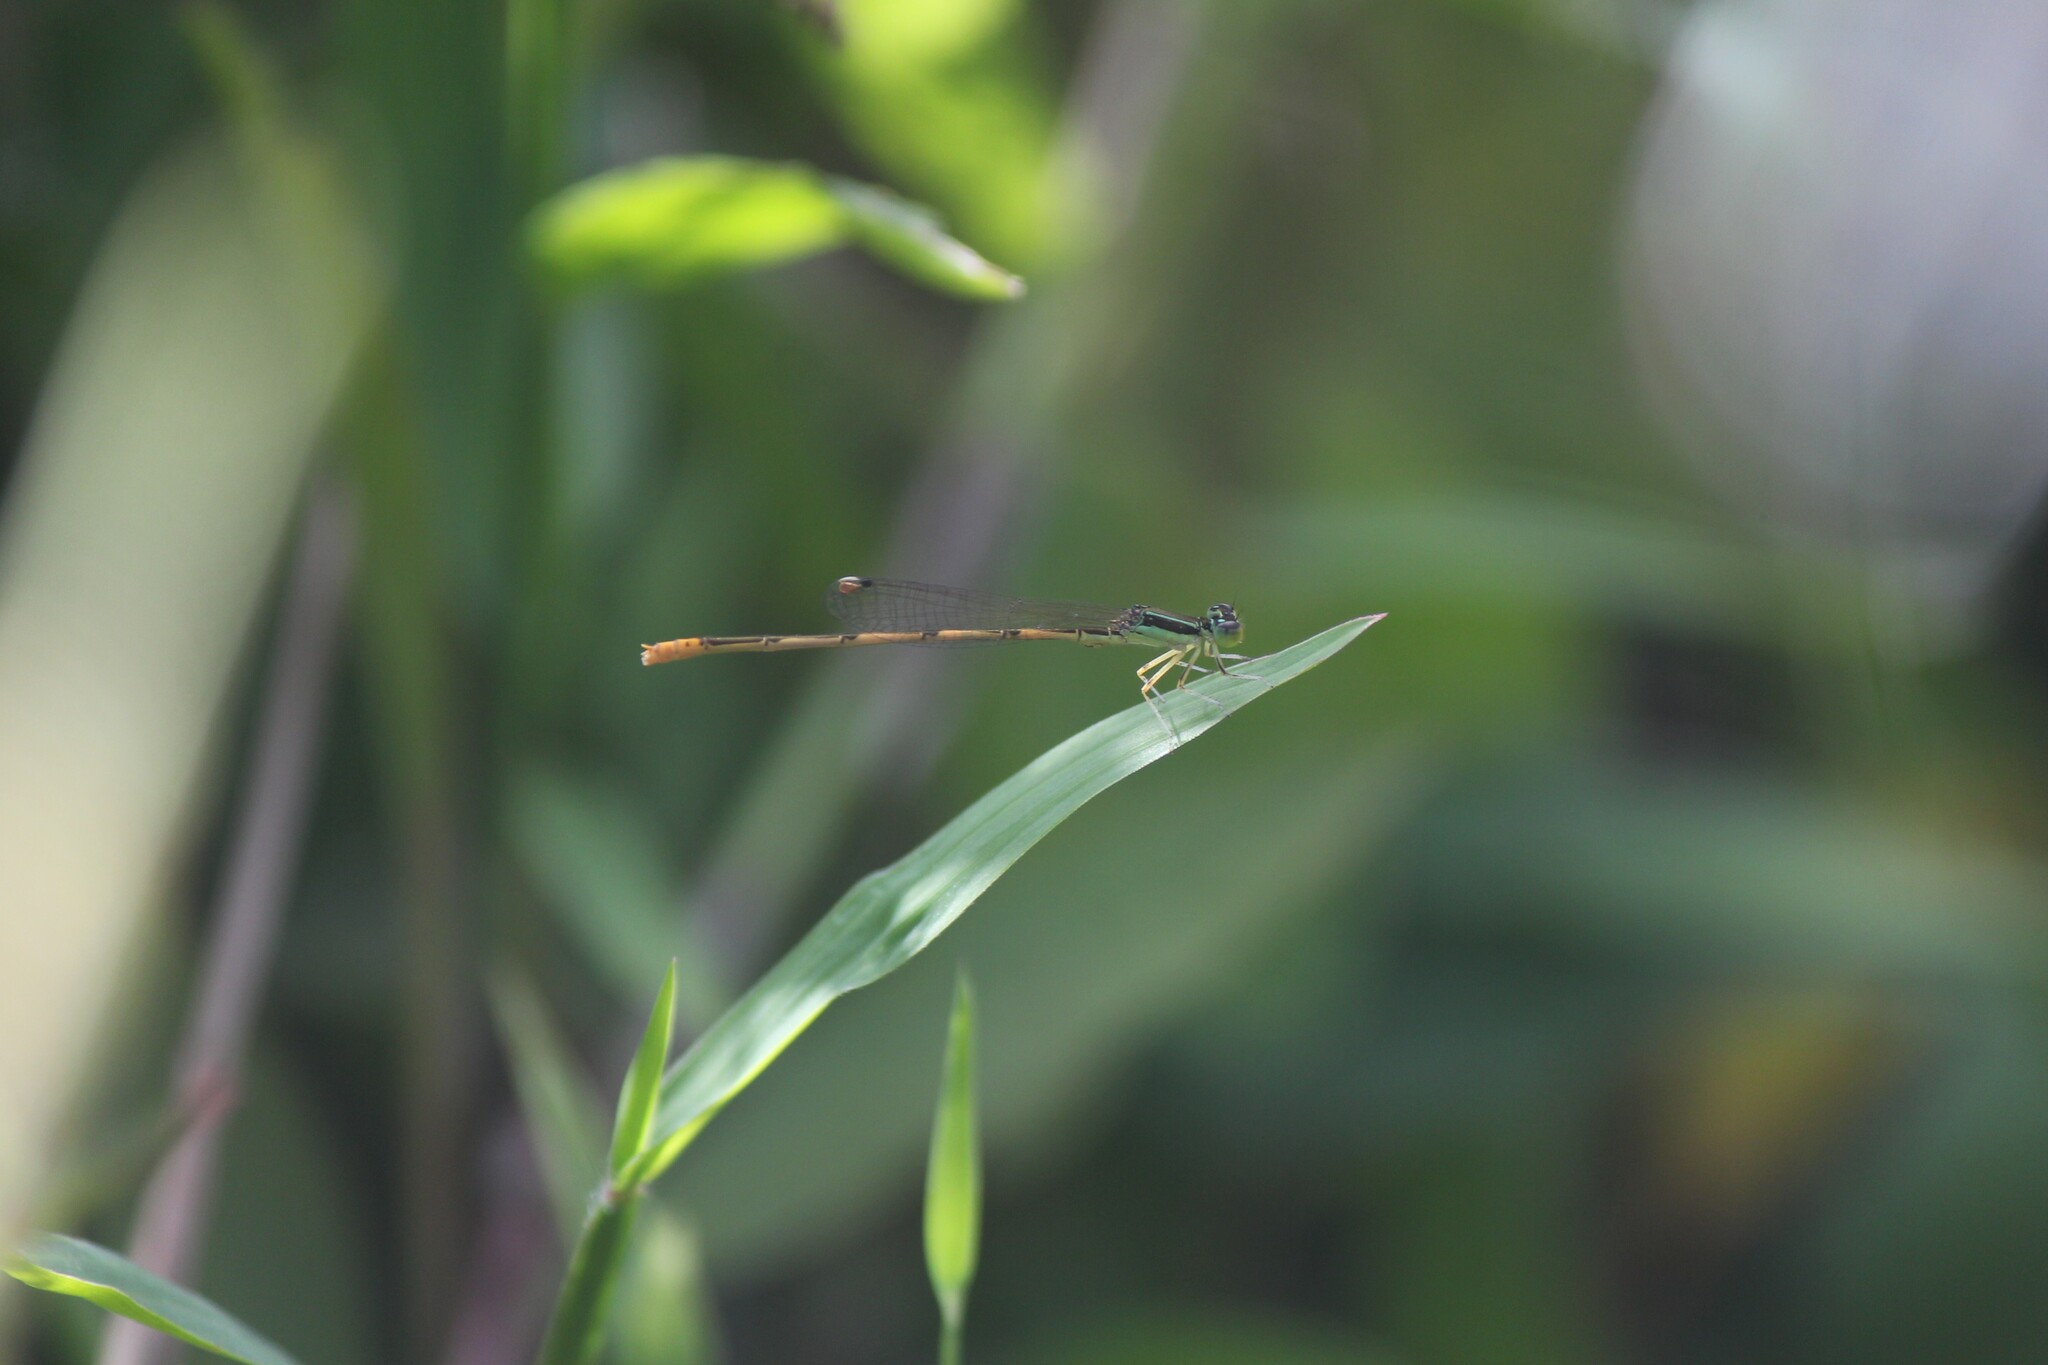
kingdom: Animalia
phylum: Arthropoda
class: Insecta
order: Odonata
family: Coenagrionidae
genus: Ischnura
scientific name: Ischnura hastata
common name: Citrine forktail
